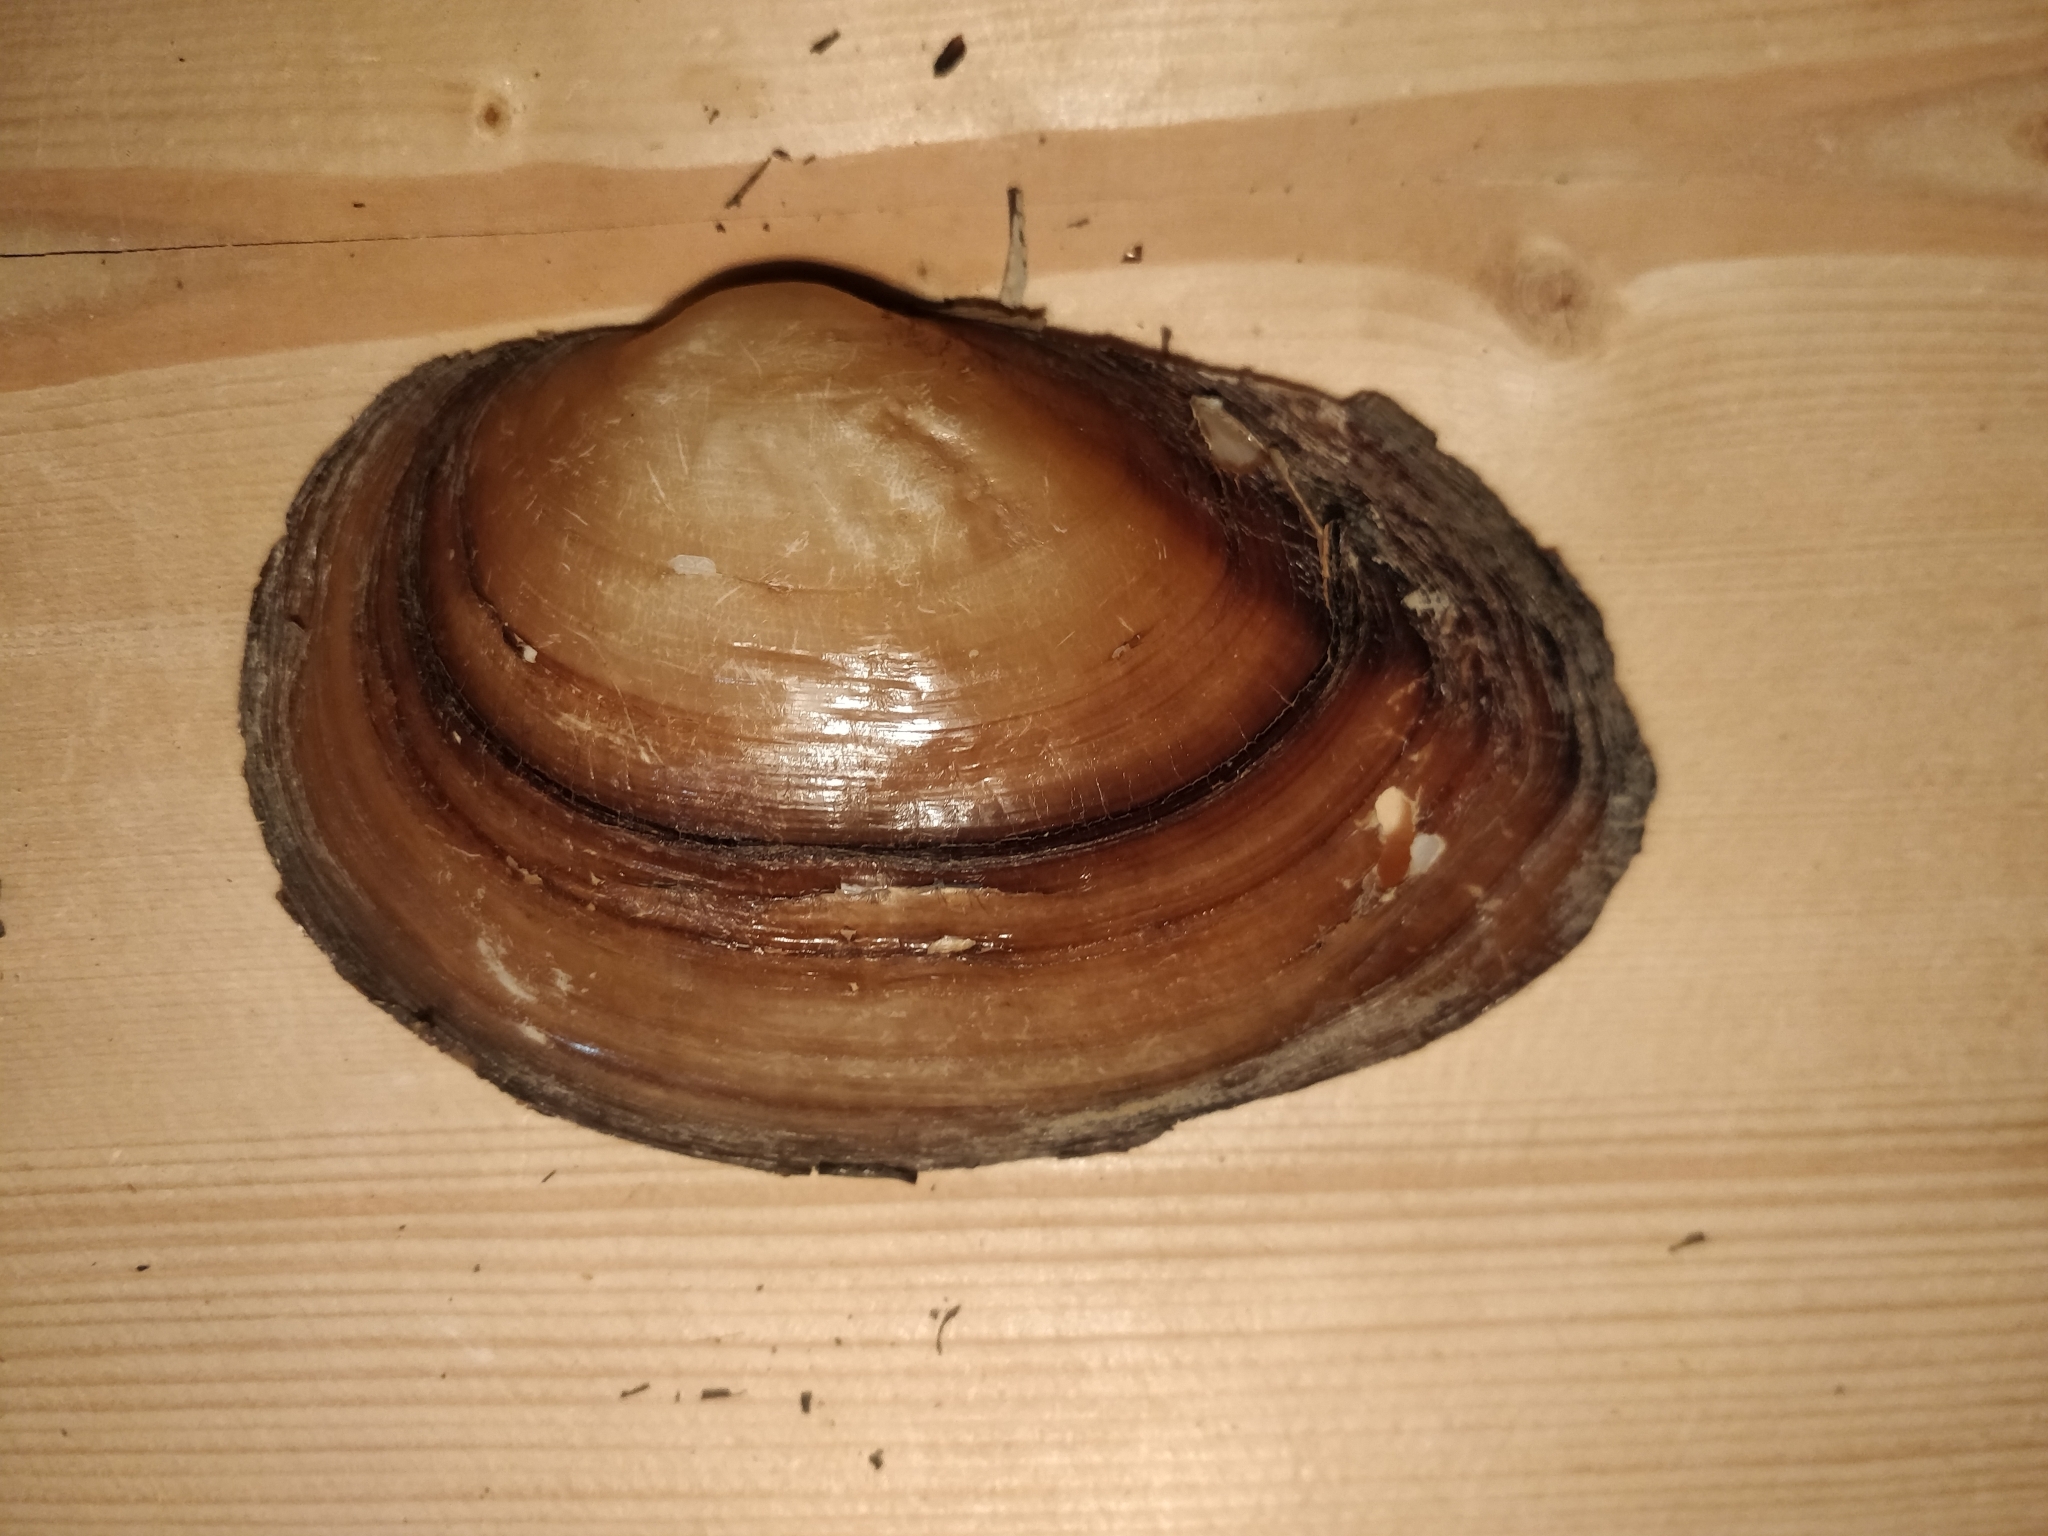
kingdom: Animalia
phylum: Mollusca
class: Bivalvia
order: Unionida
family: Unionidae
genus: Pyganodon
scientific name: Pyganodon grandis
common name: Giant floater
